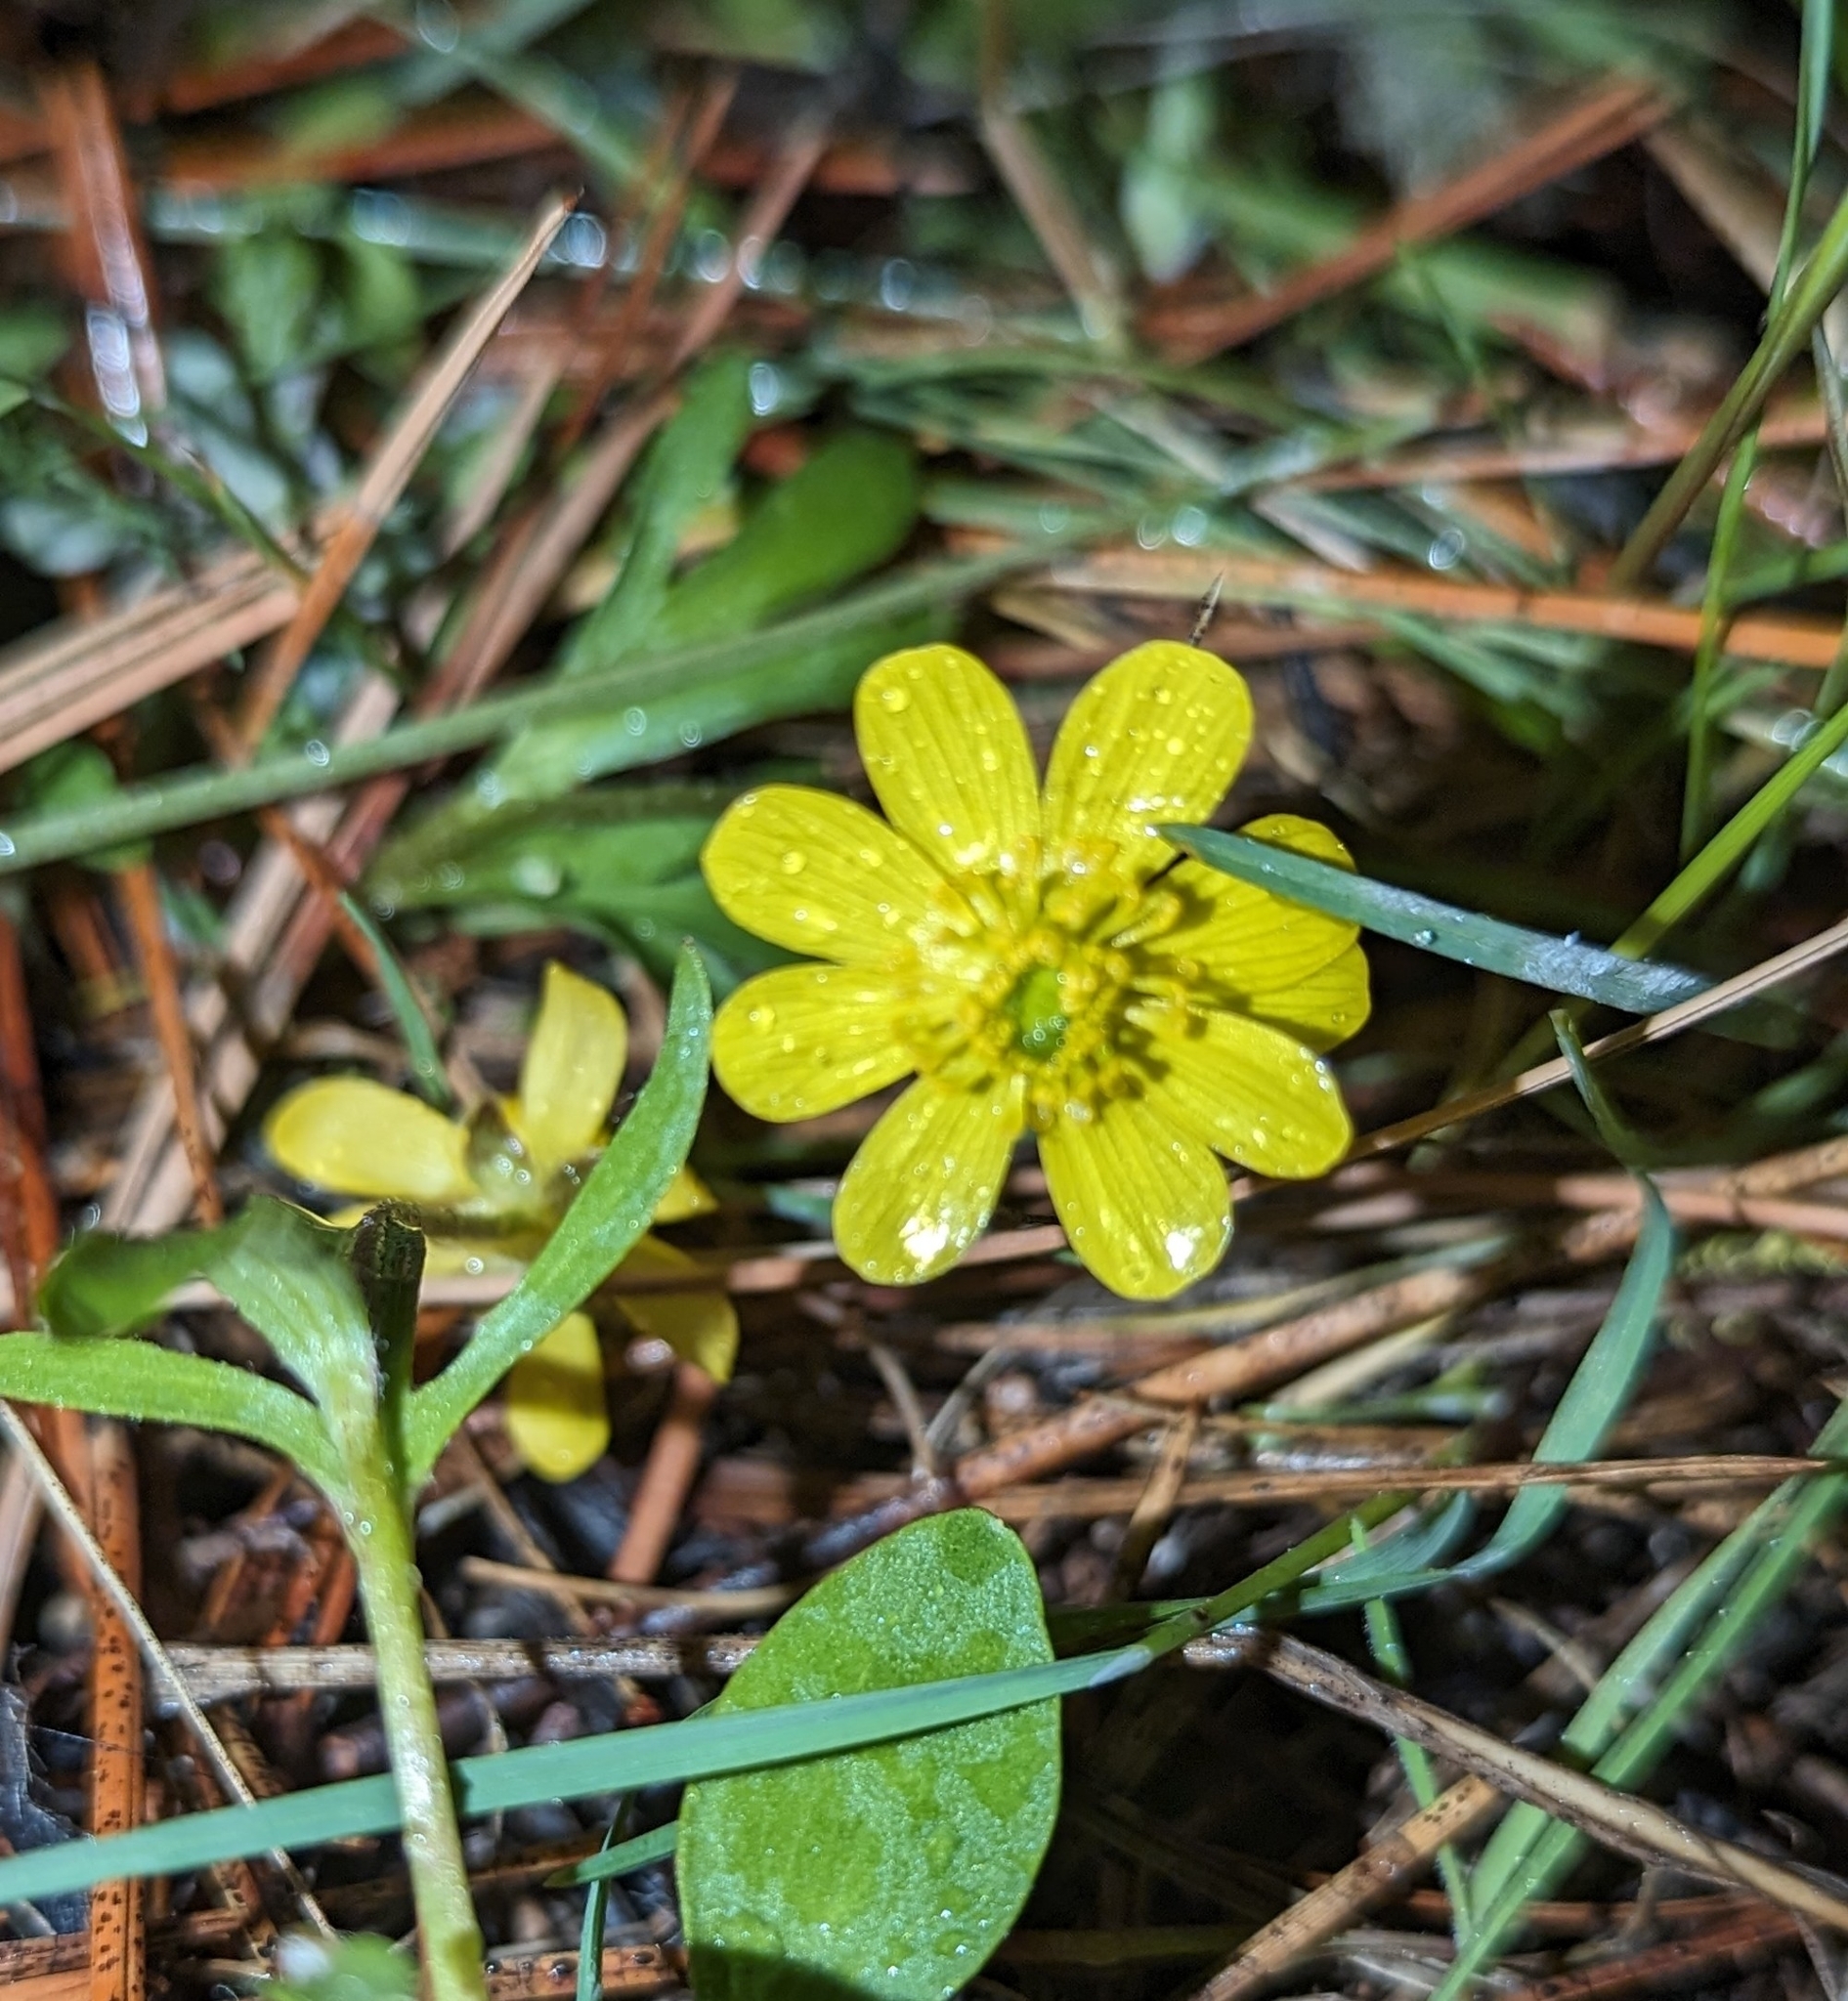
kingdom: Plantae
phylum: Tracheophyta
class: Magnoliopsida
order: Ranunculales
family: Ranunculaceae
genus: Ranunculus
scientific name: Ranunculus glaberrimus
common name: Sagebrush buttercup
